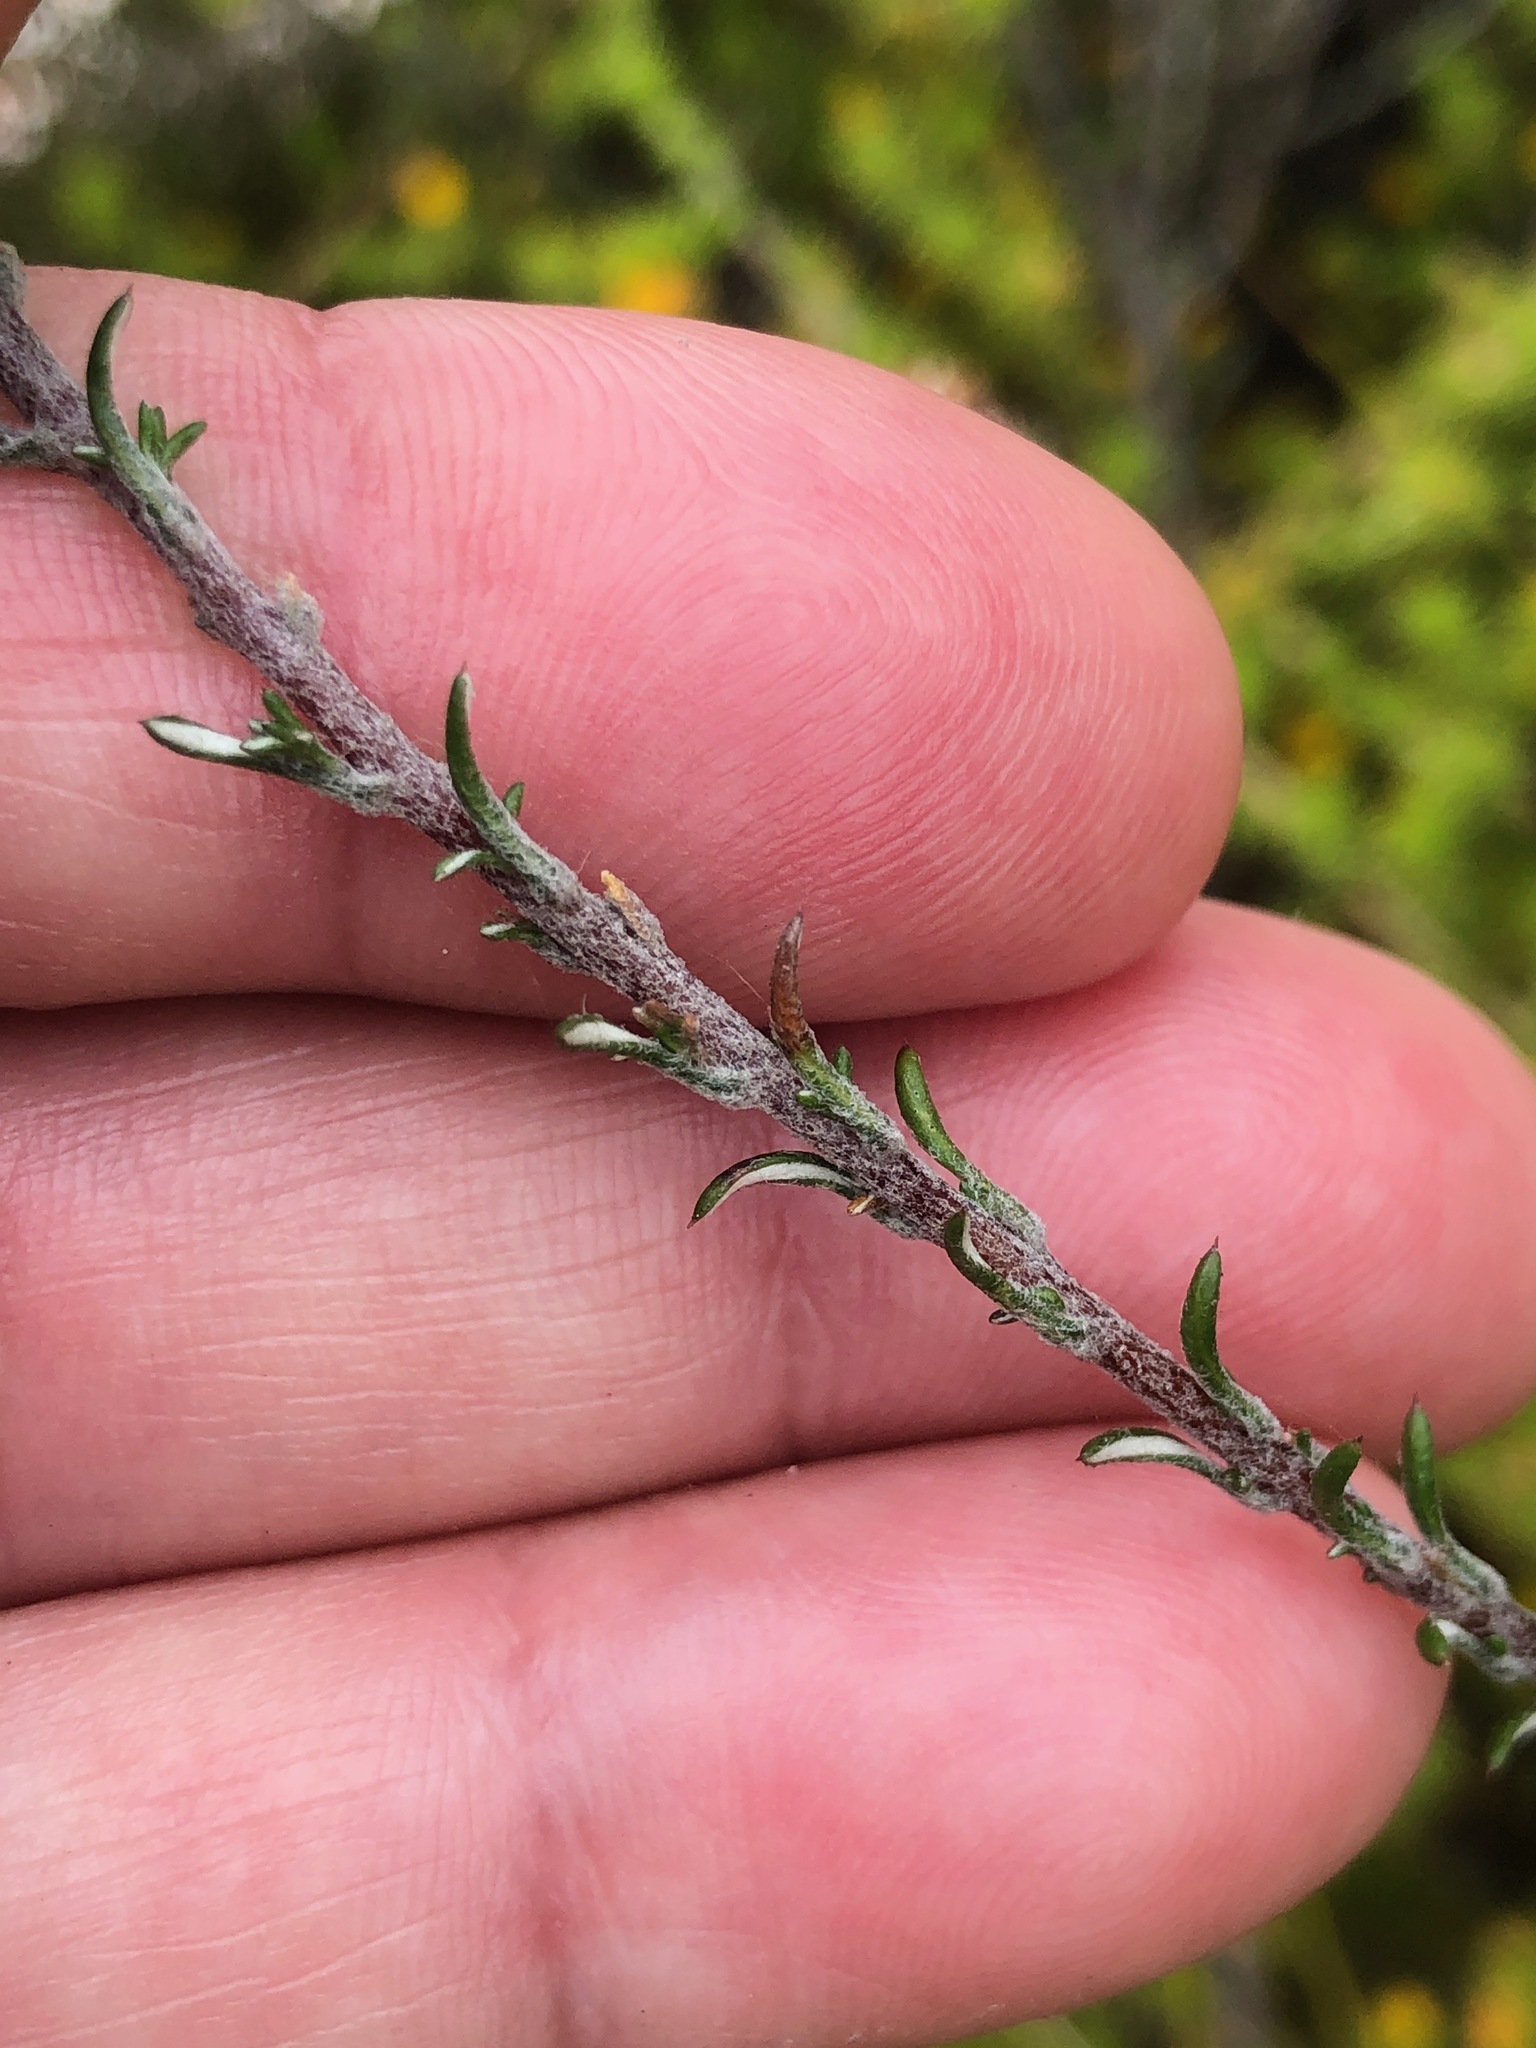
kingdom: Plantae
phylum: Tracheophyta
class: Magnoliopsida
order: Asterales
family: Asteraceae
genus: Disparago
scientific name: Disparago anomala
